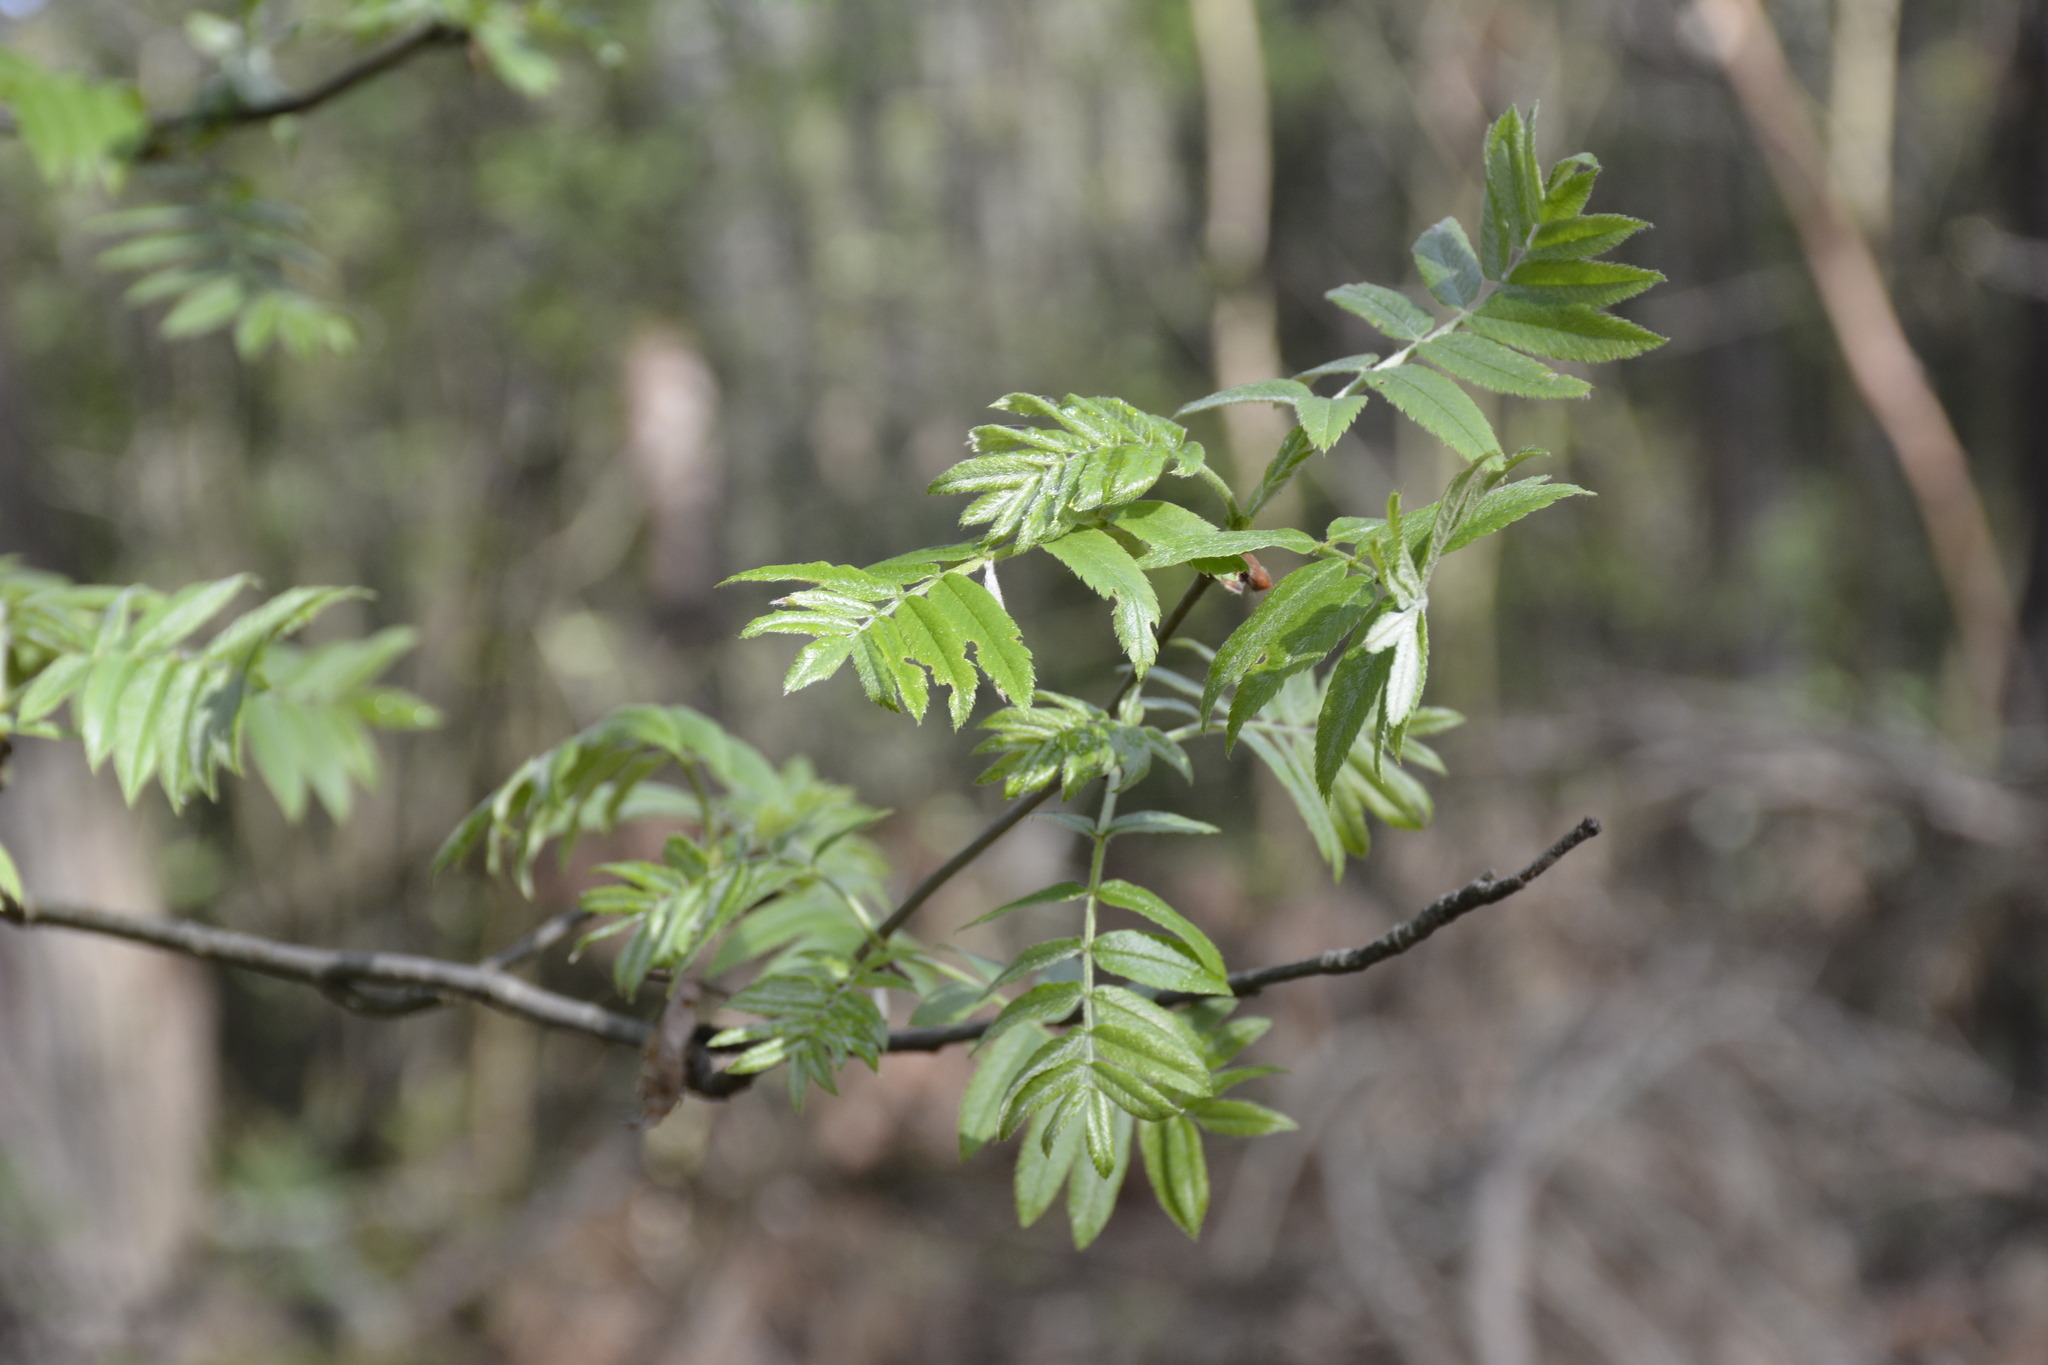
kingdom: Plantae
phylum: Tracheophyta
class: Magnoliopsida
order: Rosales
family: Rosaceae
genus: Sorbus
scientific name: Sorbus aucuparia
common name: Rowan
